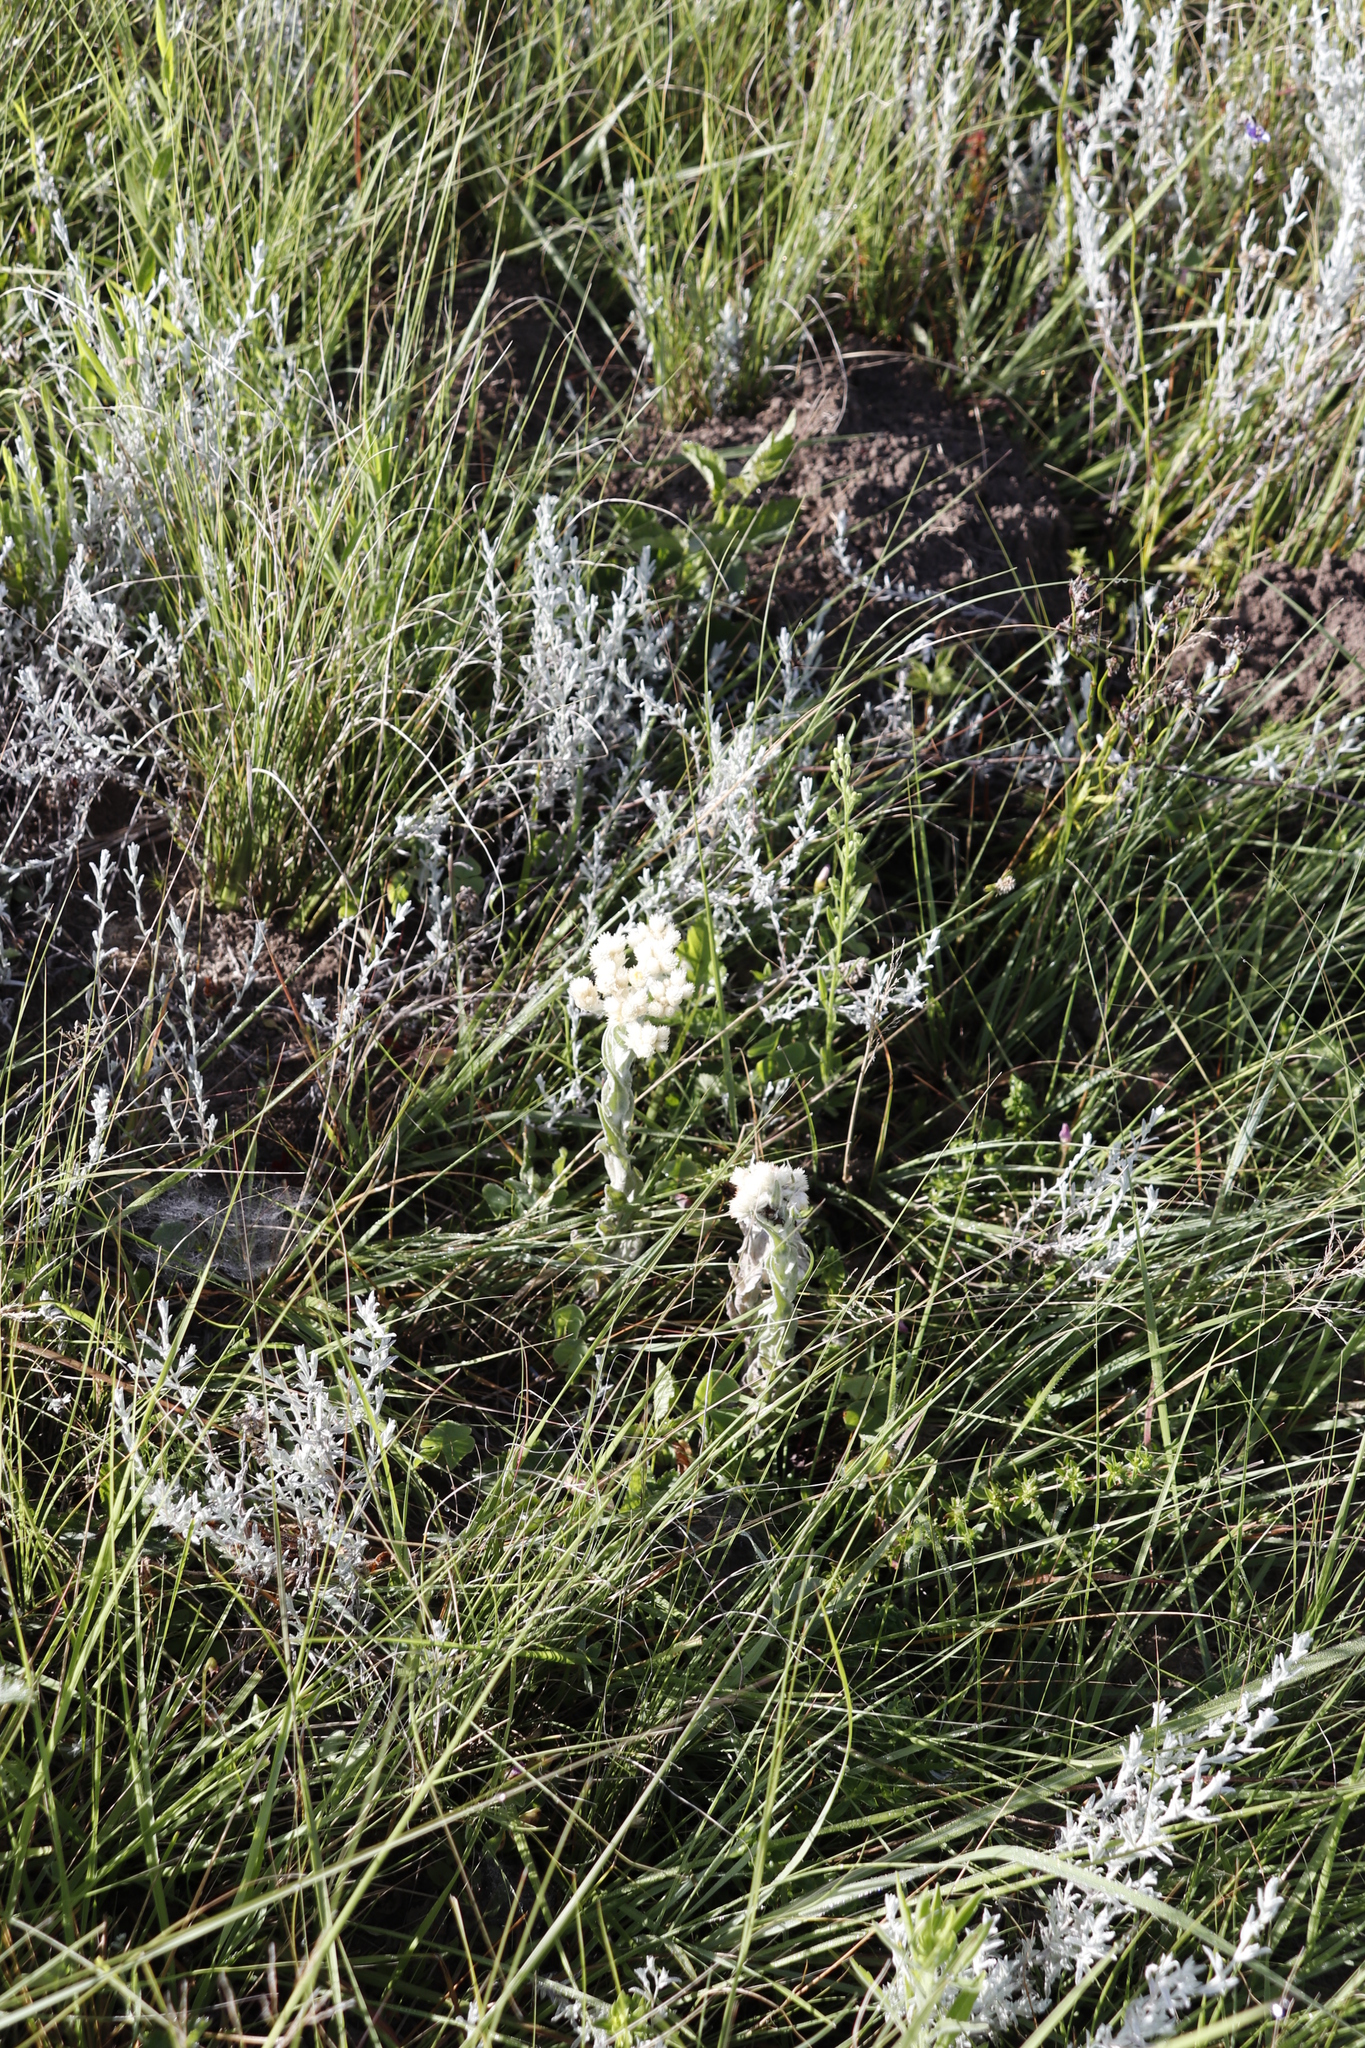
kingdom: Plantae
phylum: Tracheophyta
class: Magnoliopsida
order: Asterales
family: Asteraceae
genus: Helichrysum
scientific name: Helichrysum appendiculatum
